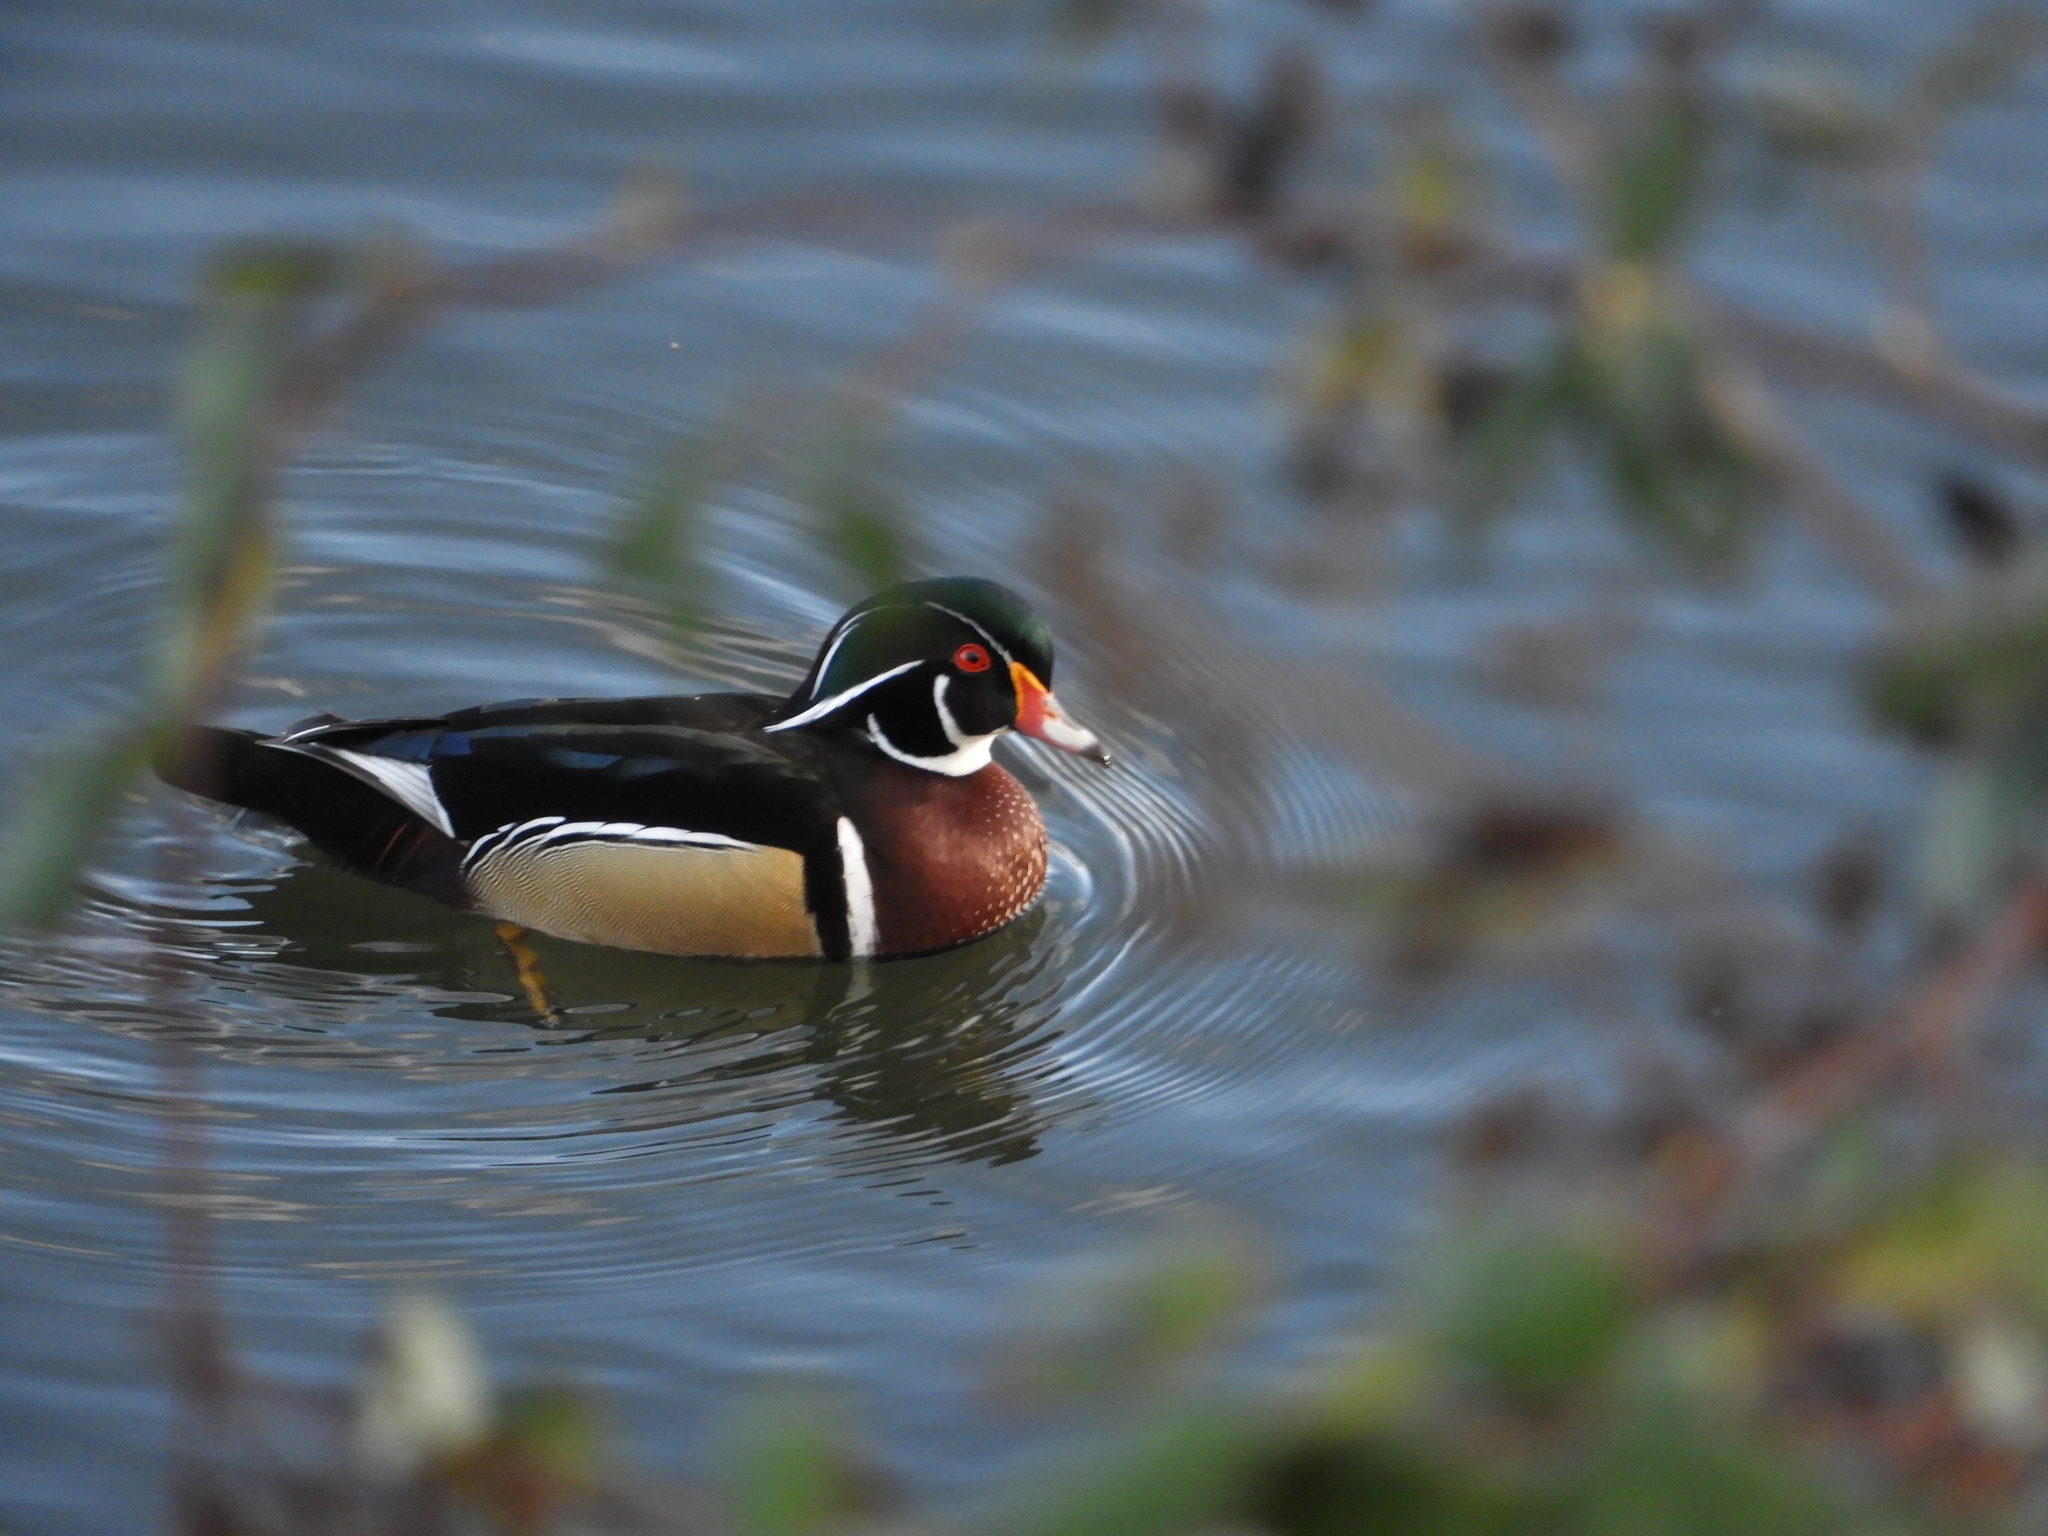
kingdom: Animalia
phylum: Chordata
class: Aves
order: Anseriformes
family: Anatidae
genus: Aix
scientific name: Aix sponsa
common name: Wood duck
